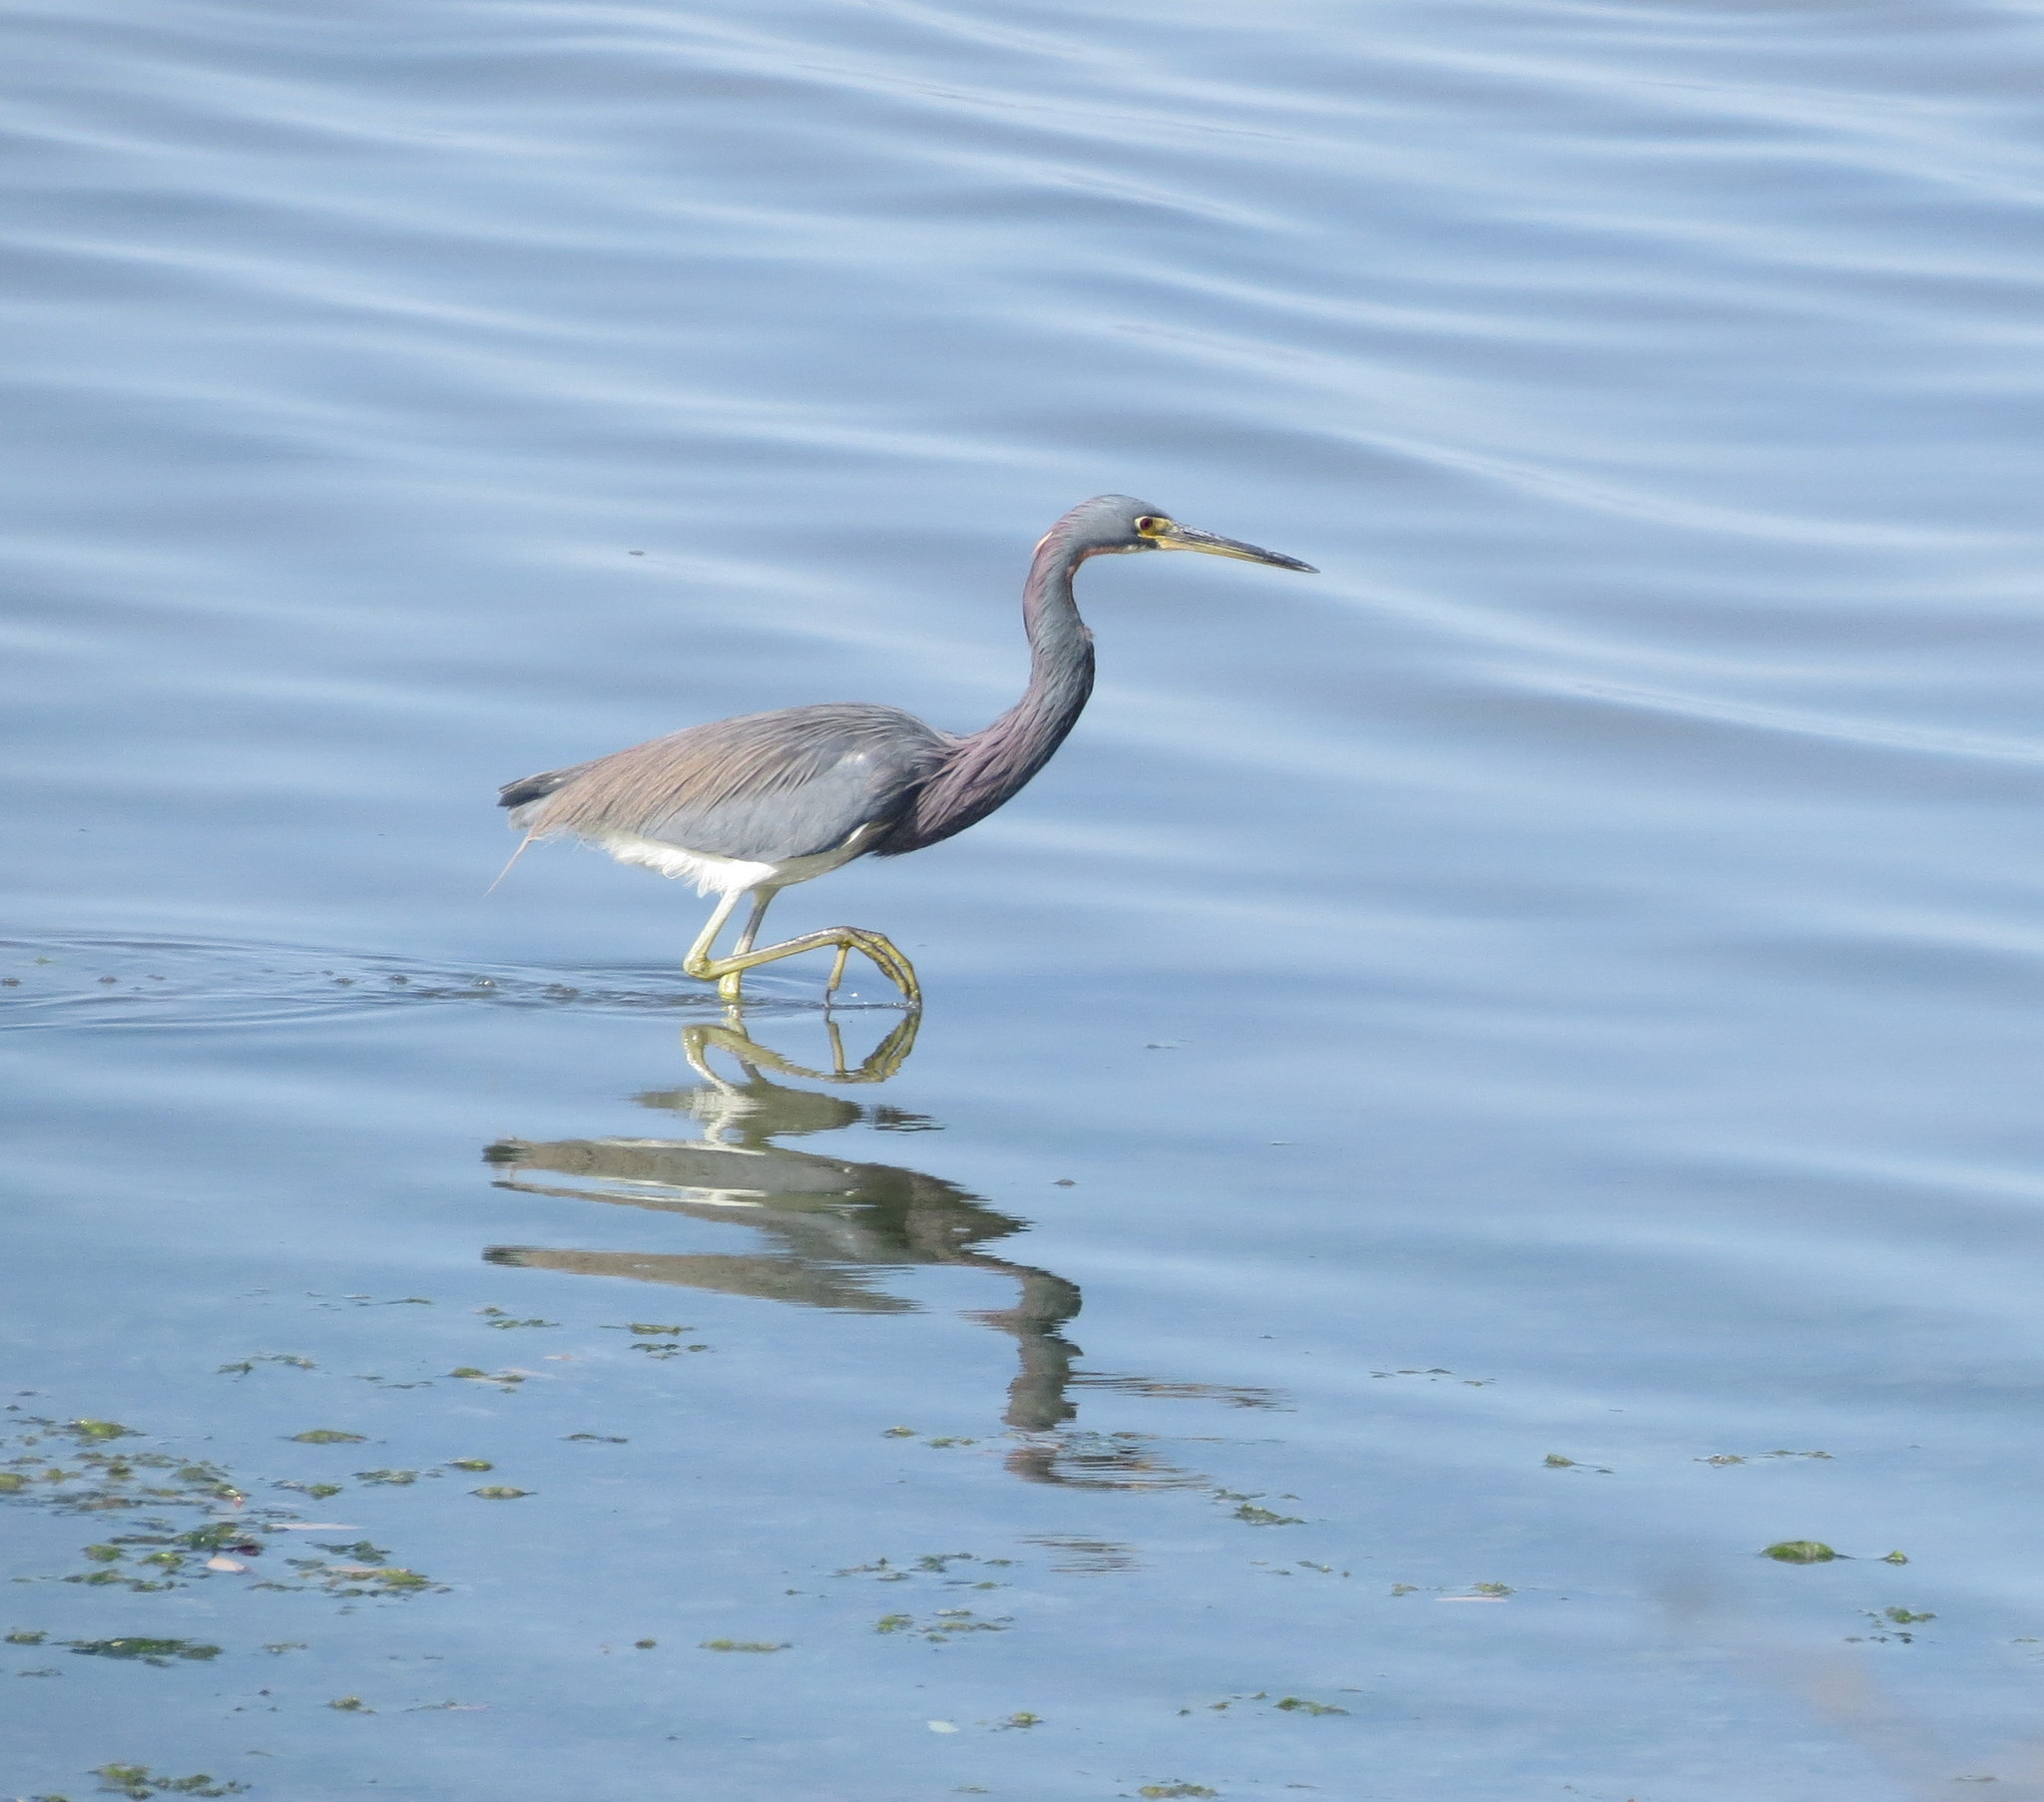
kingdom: Animalia
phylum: Chordata
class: Aves
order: Pelecaniformes
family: Ardeidae
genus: Egretta
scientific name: Egretta tricolor
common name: Tricolored heron
